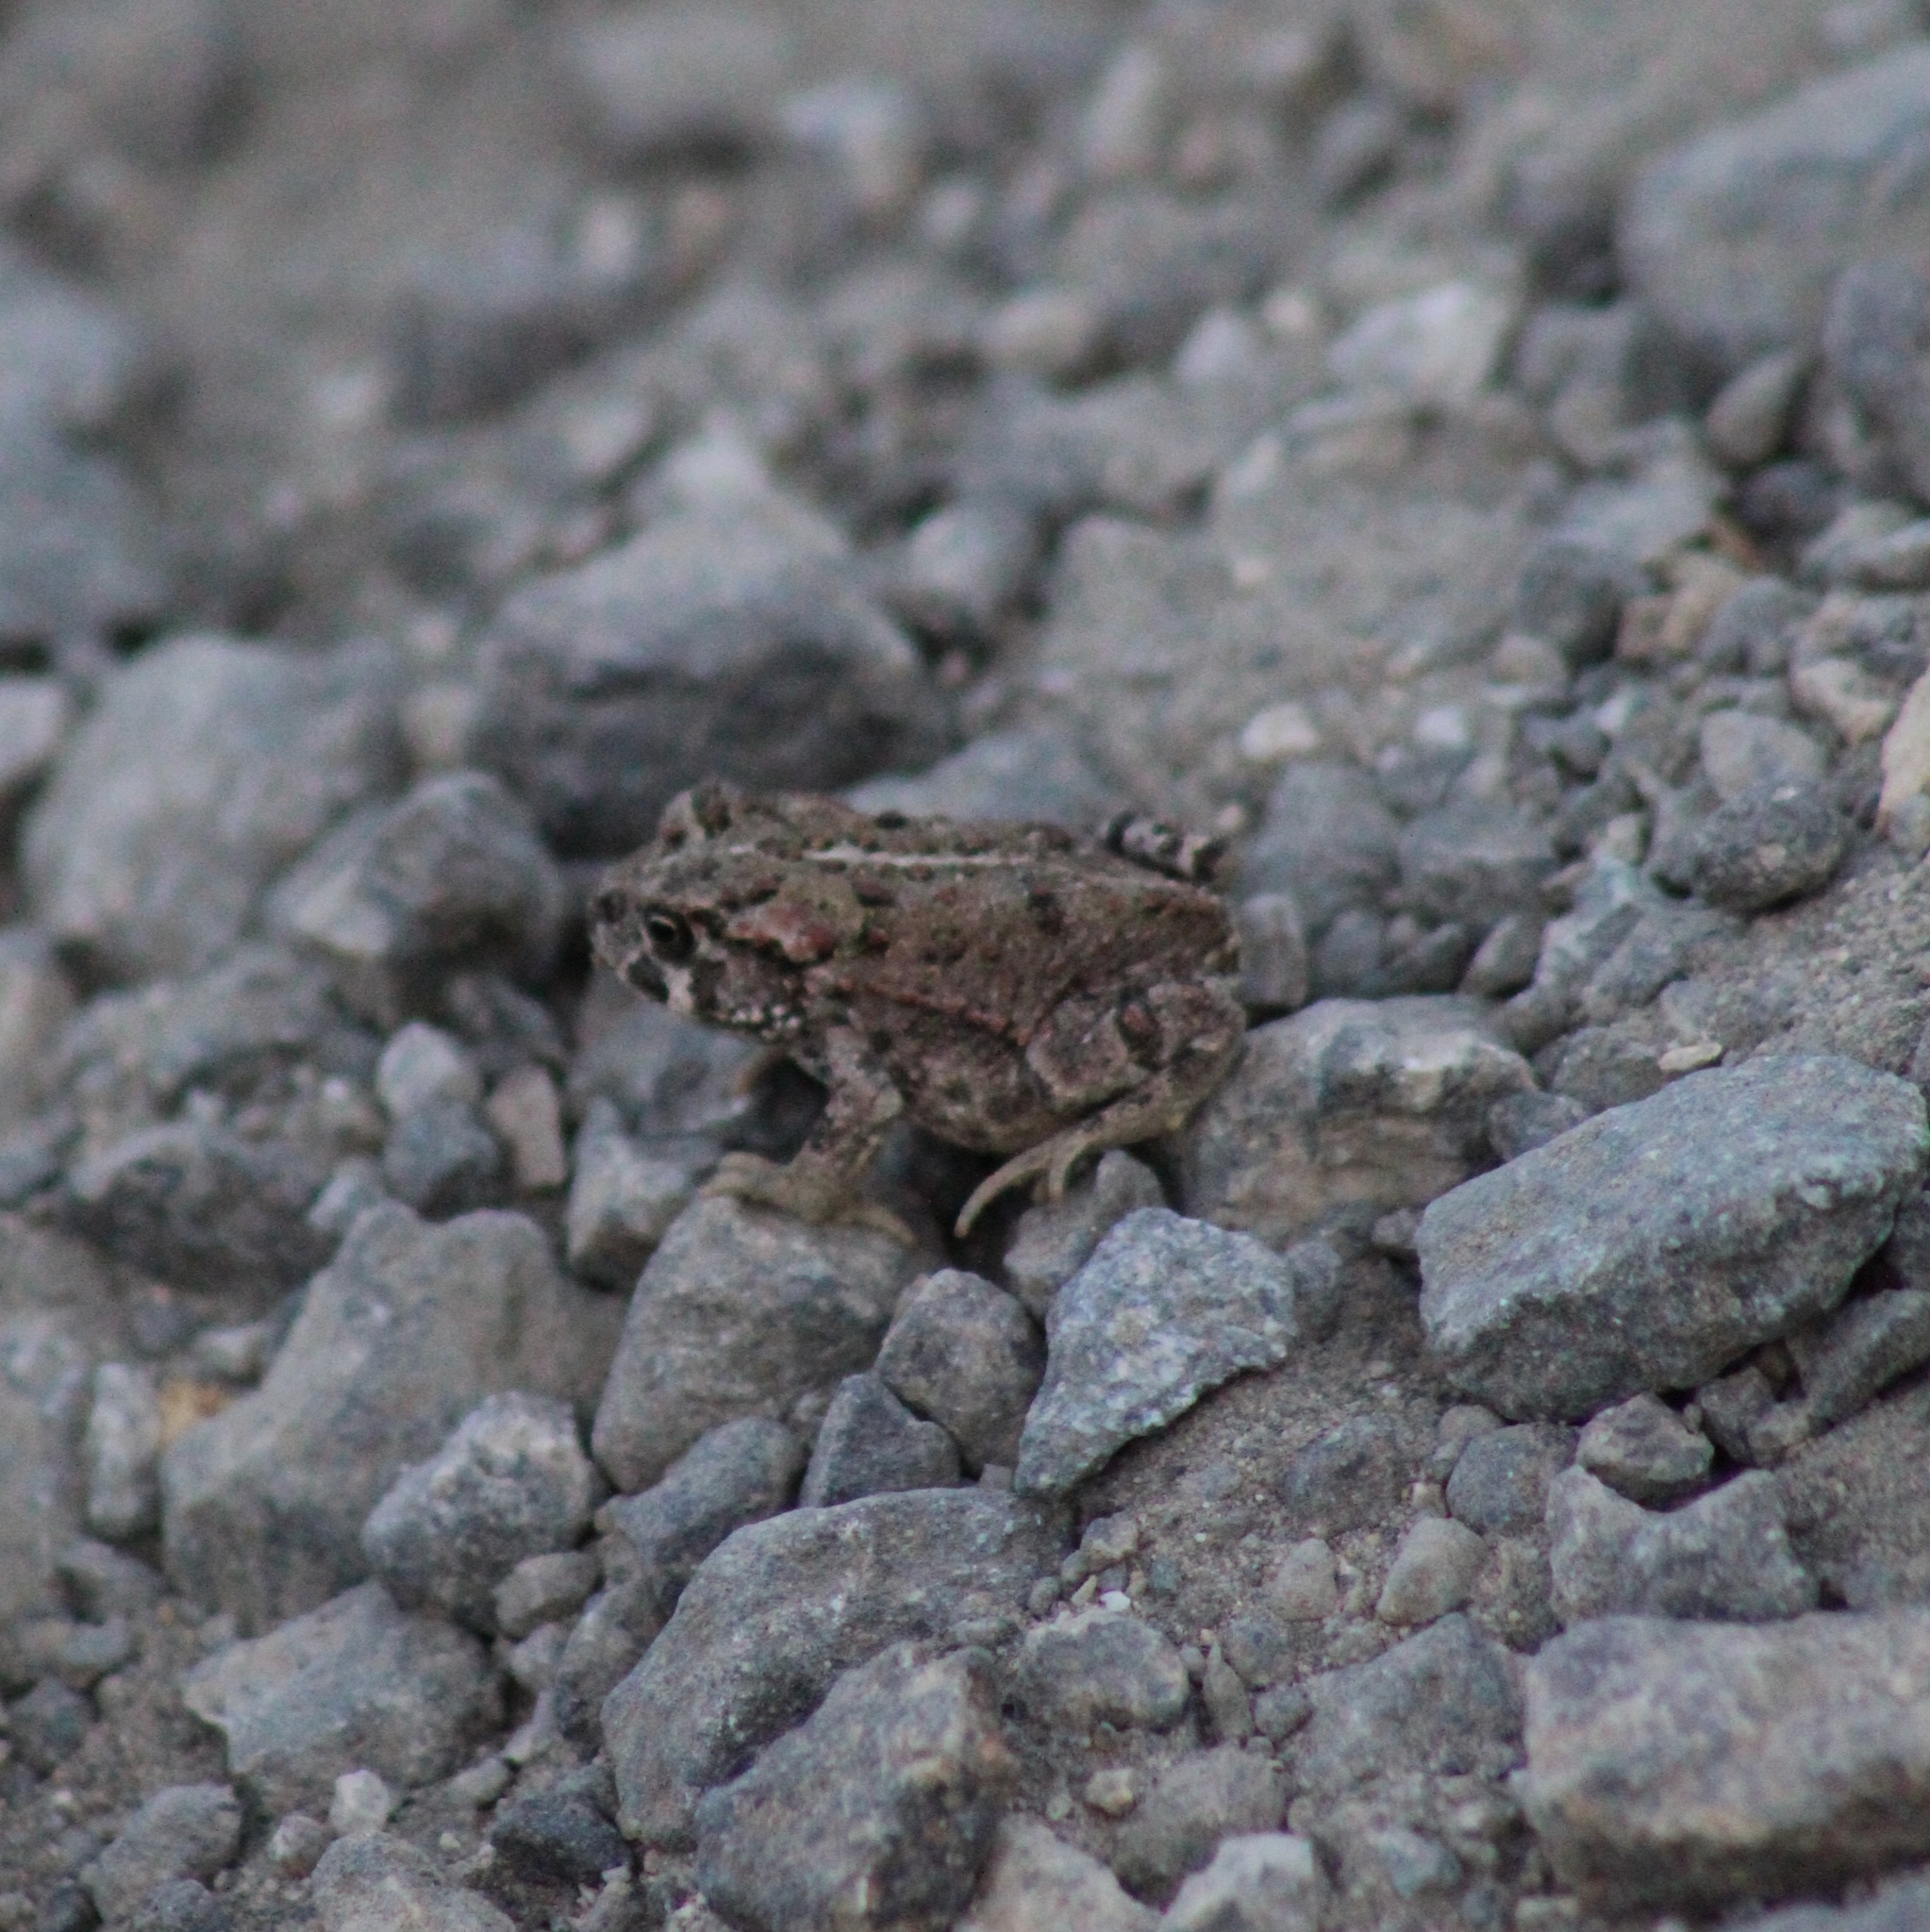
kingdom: Animalia
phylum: Chordata
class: Amphibia
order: Anura
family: Bufonidae
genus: Anaxyrus
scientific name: Anaxyrus boreas
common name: Western toad
